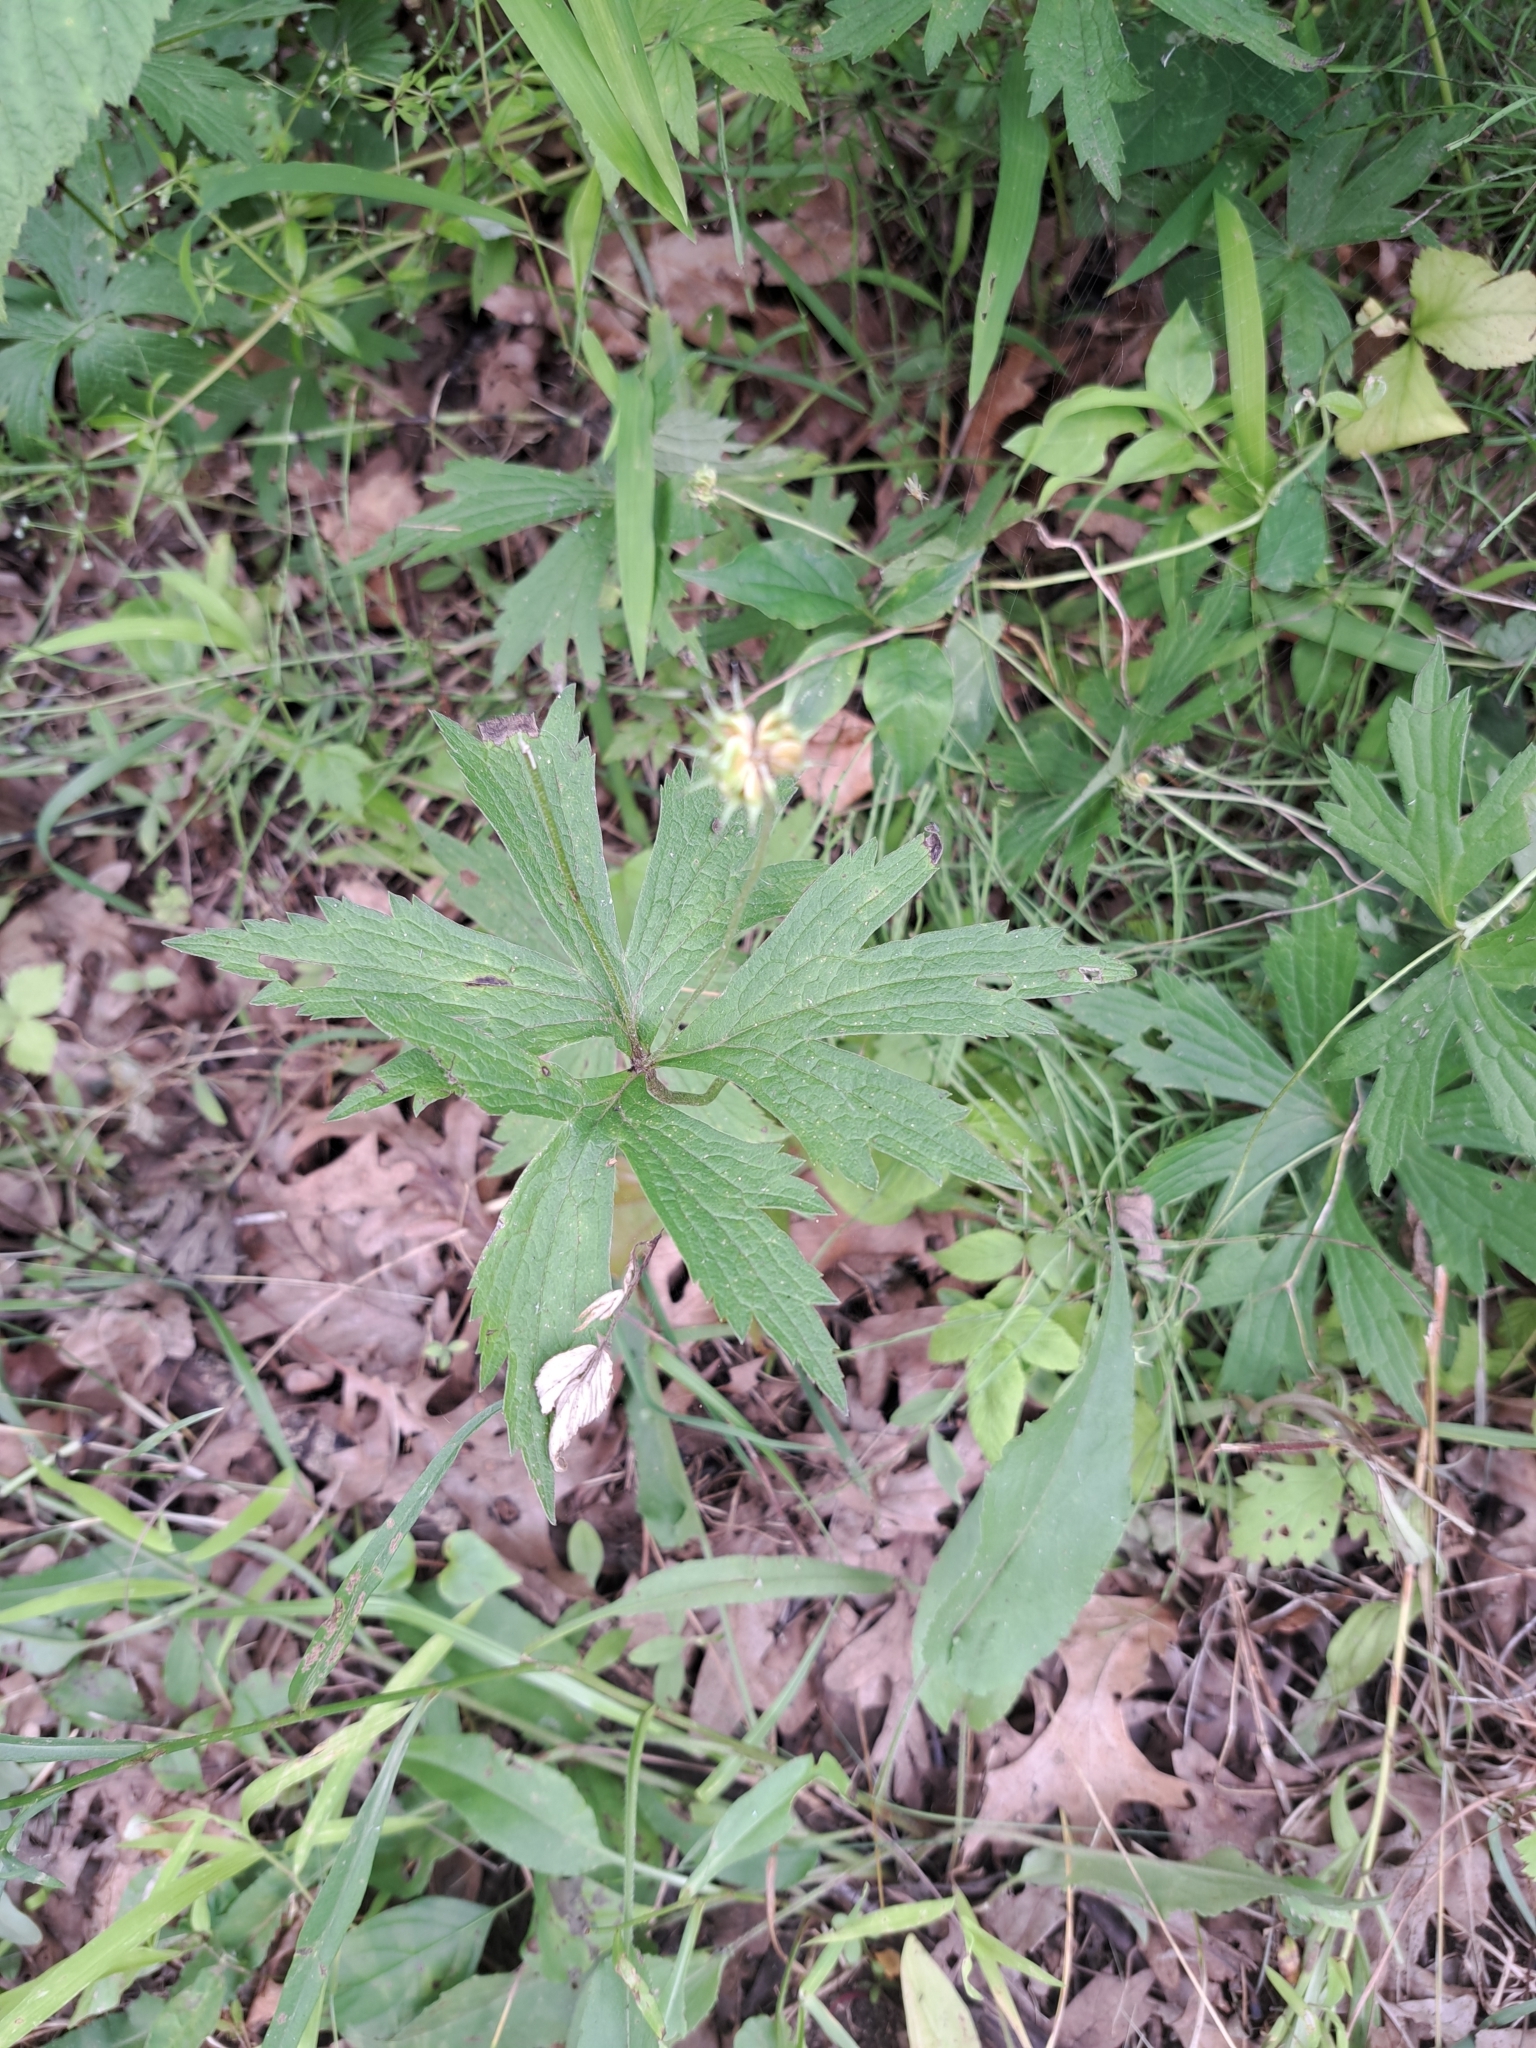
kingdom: Plantae
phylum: Tracheophyta
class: Magnoliopsida
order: Ranunculales
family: Ranunculaceae
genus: Anemonastrum
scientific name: Anemonastrum canadense
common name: Canada anemone
